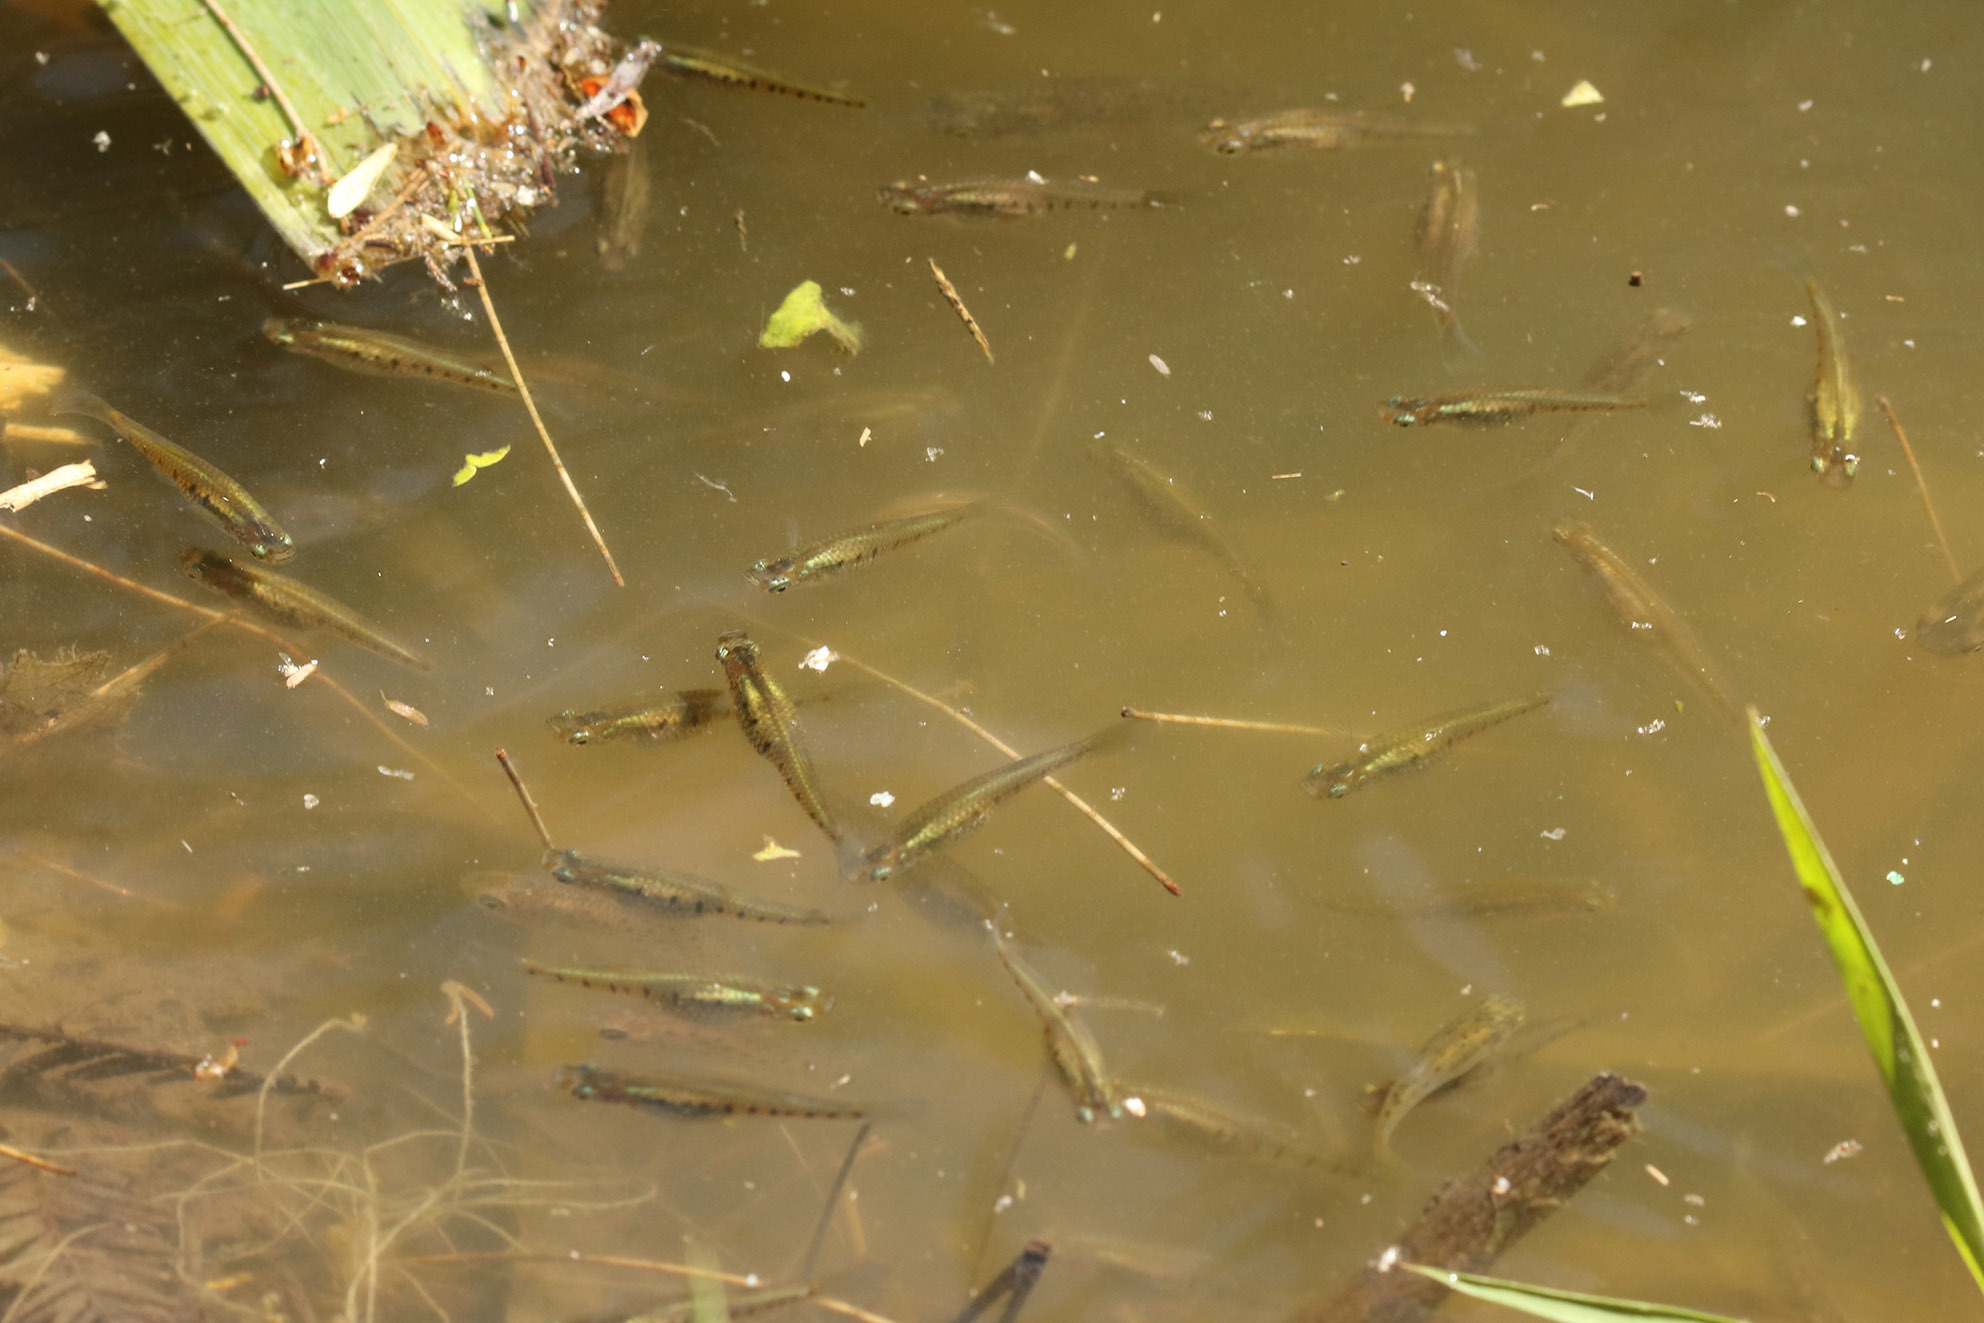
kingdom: Animalia
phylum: Chordata
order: Cyprinodontiformes
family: Poeciliidae
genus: Cnesterodon
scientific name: Cnesterodon decemmaculatus
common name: Ten spotted live-bearer
